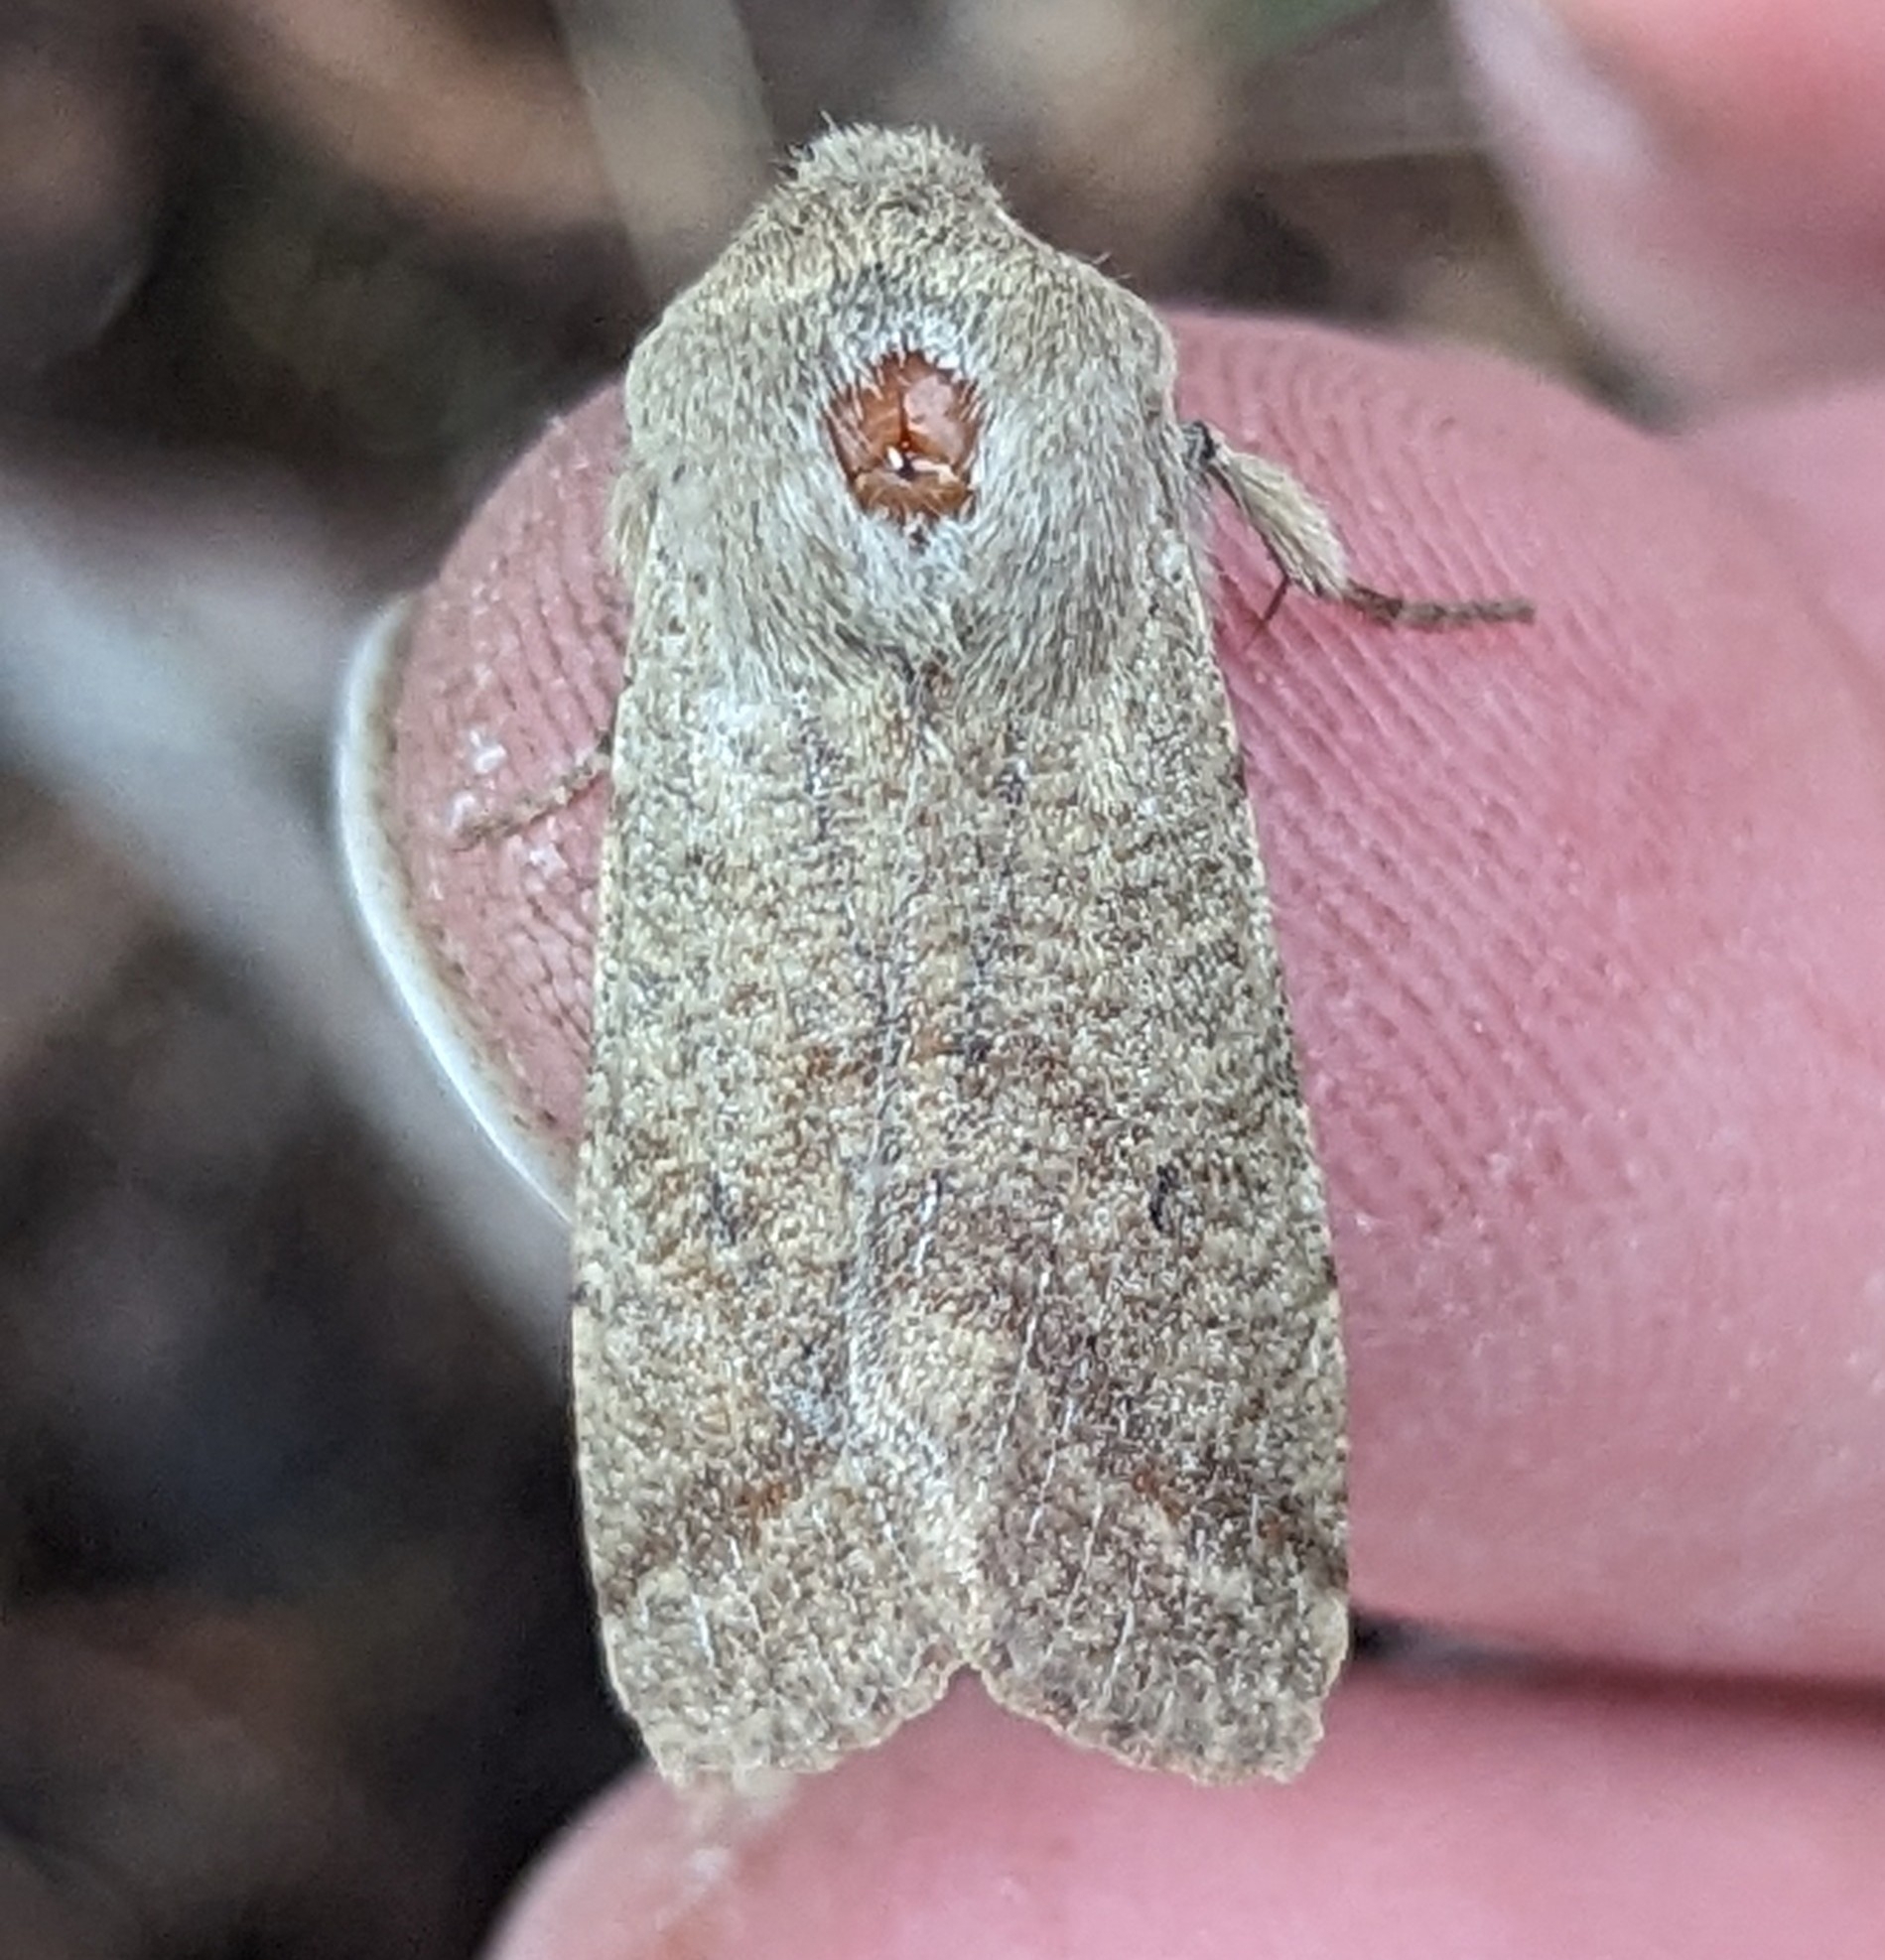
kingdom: Animalia
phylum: Arthropoda
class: Insecta
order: Lepidoptera
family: Noctuidae
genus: Orthosia
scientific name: Orthosia pacifica
